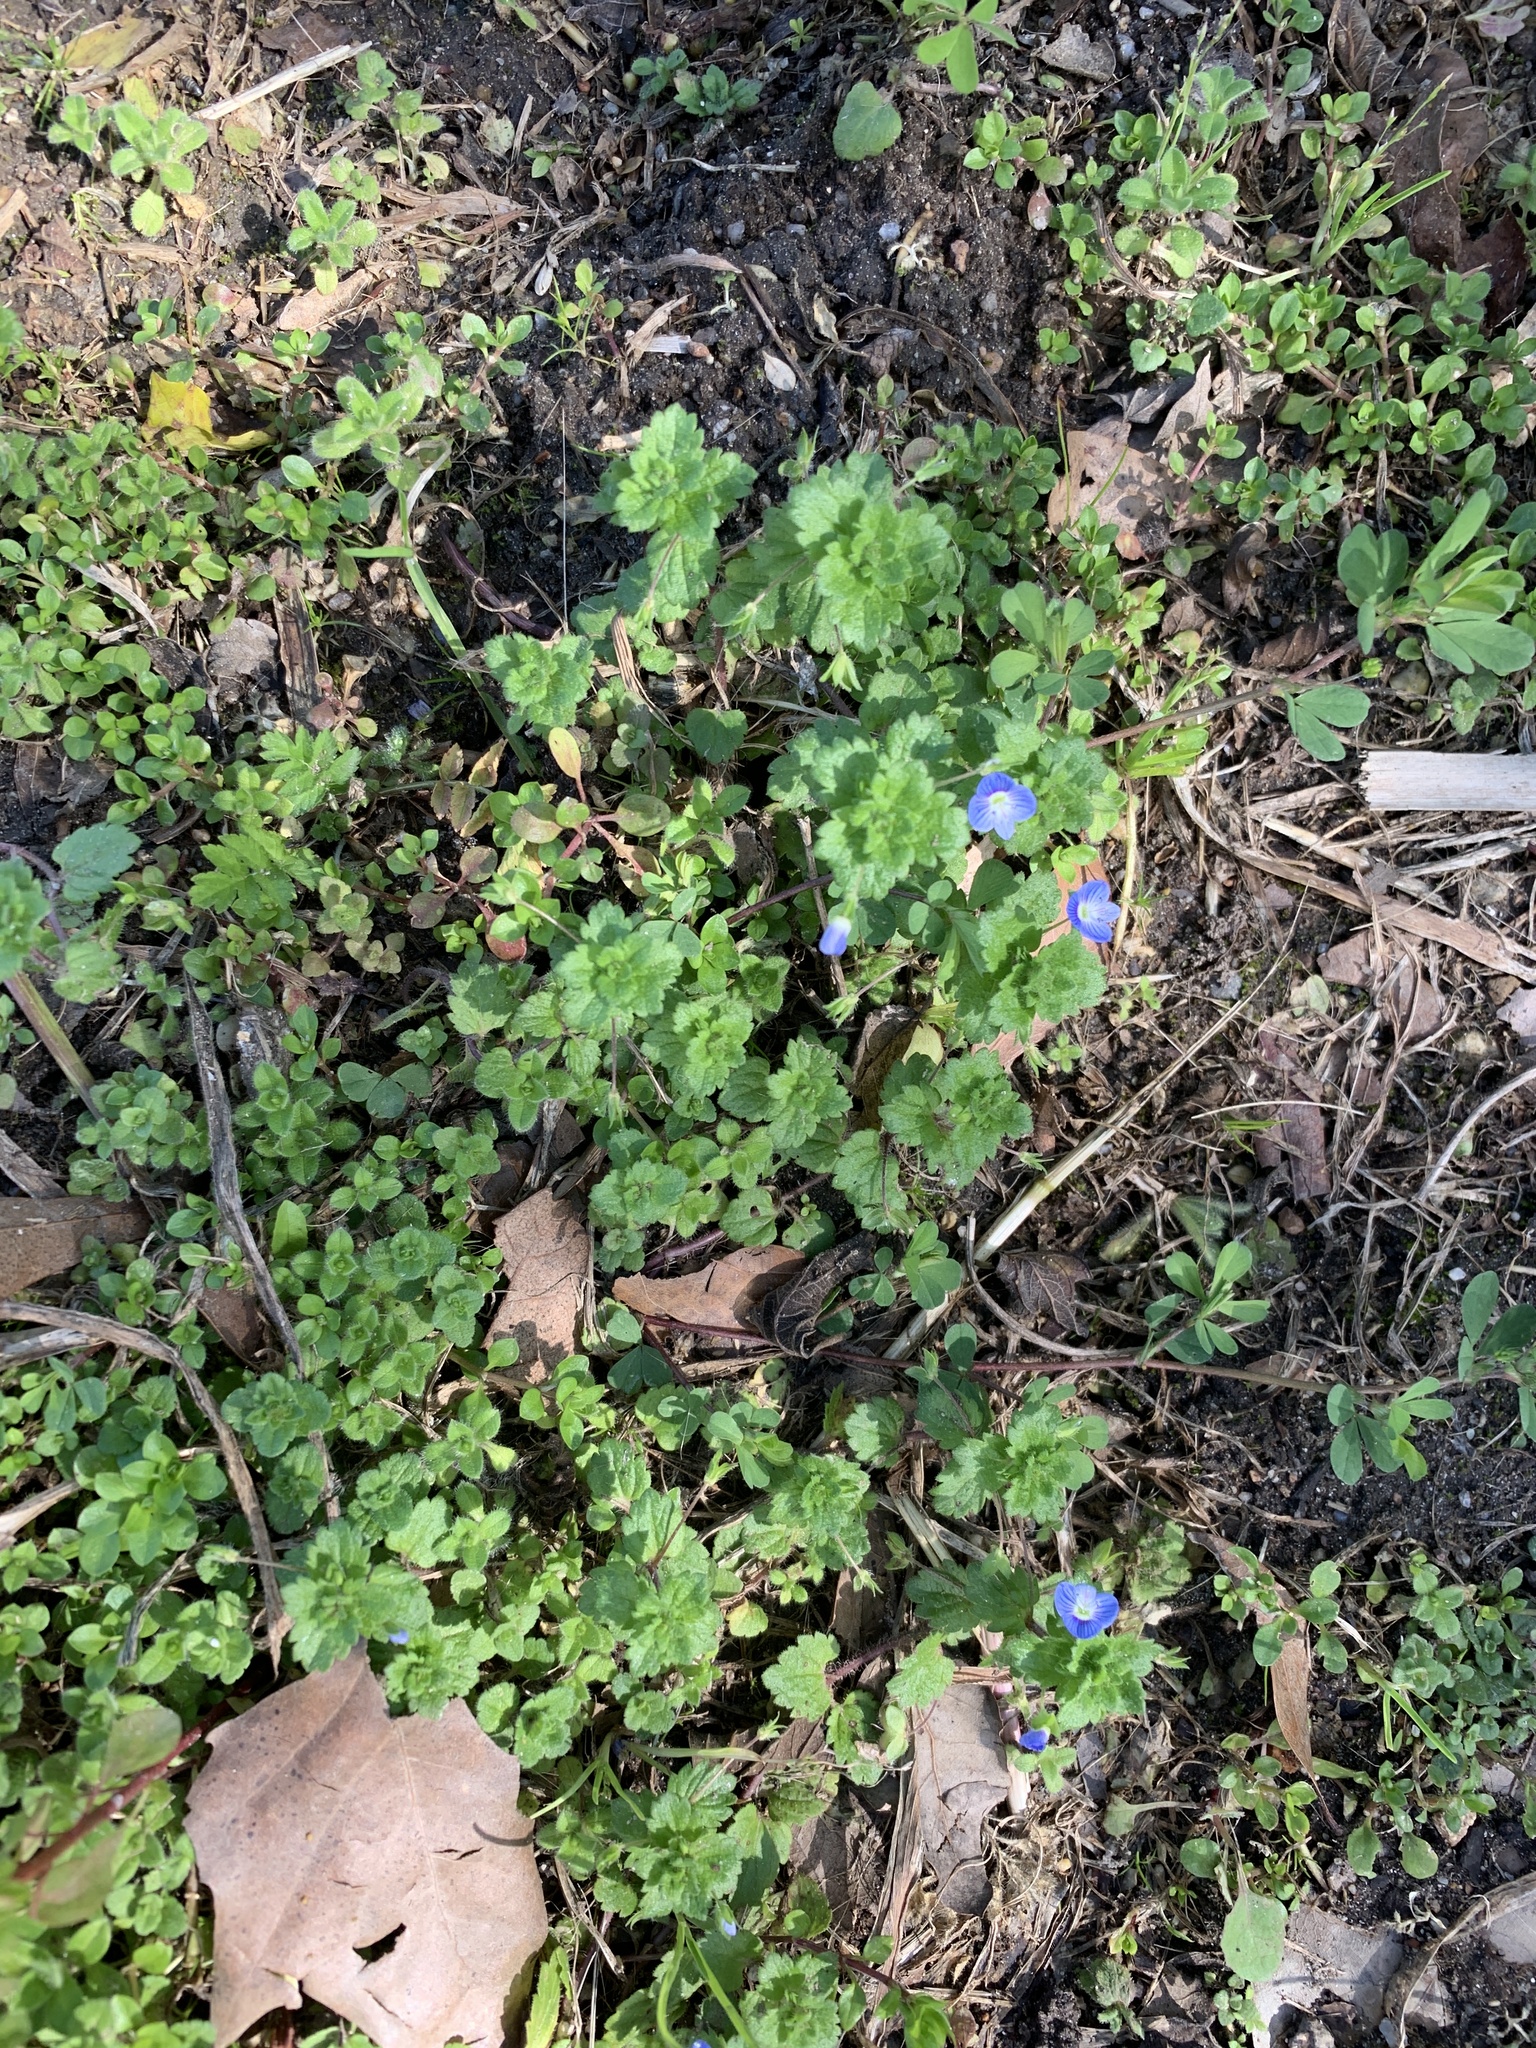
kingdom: Plantae
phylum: Tracheophyta
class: Magnoliopsida
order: Lamiales
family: Plantaginaceae
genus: Veronica
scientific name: Veronica persica
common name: Common field-speedwell
